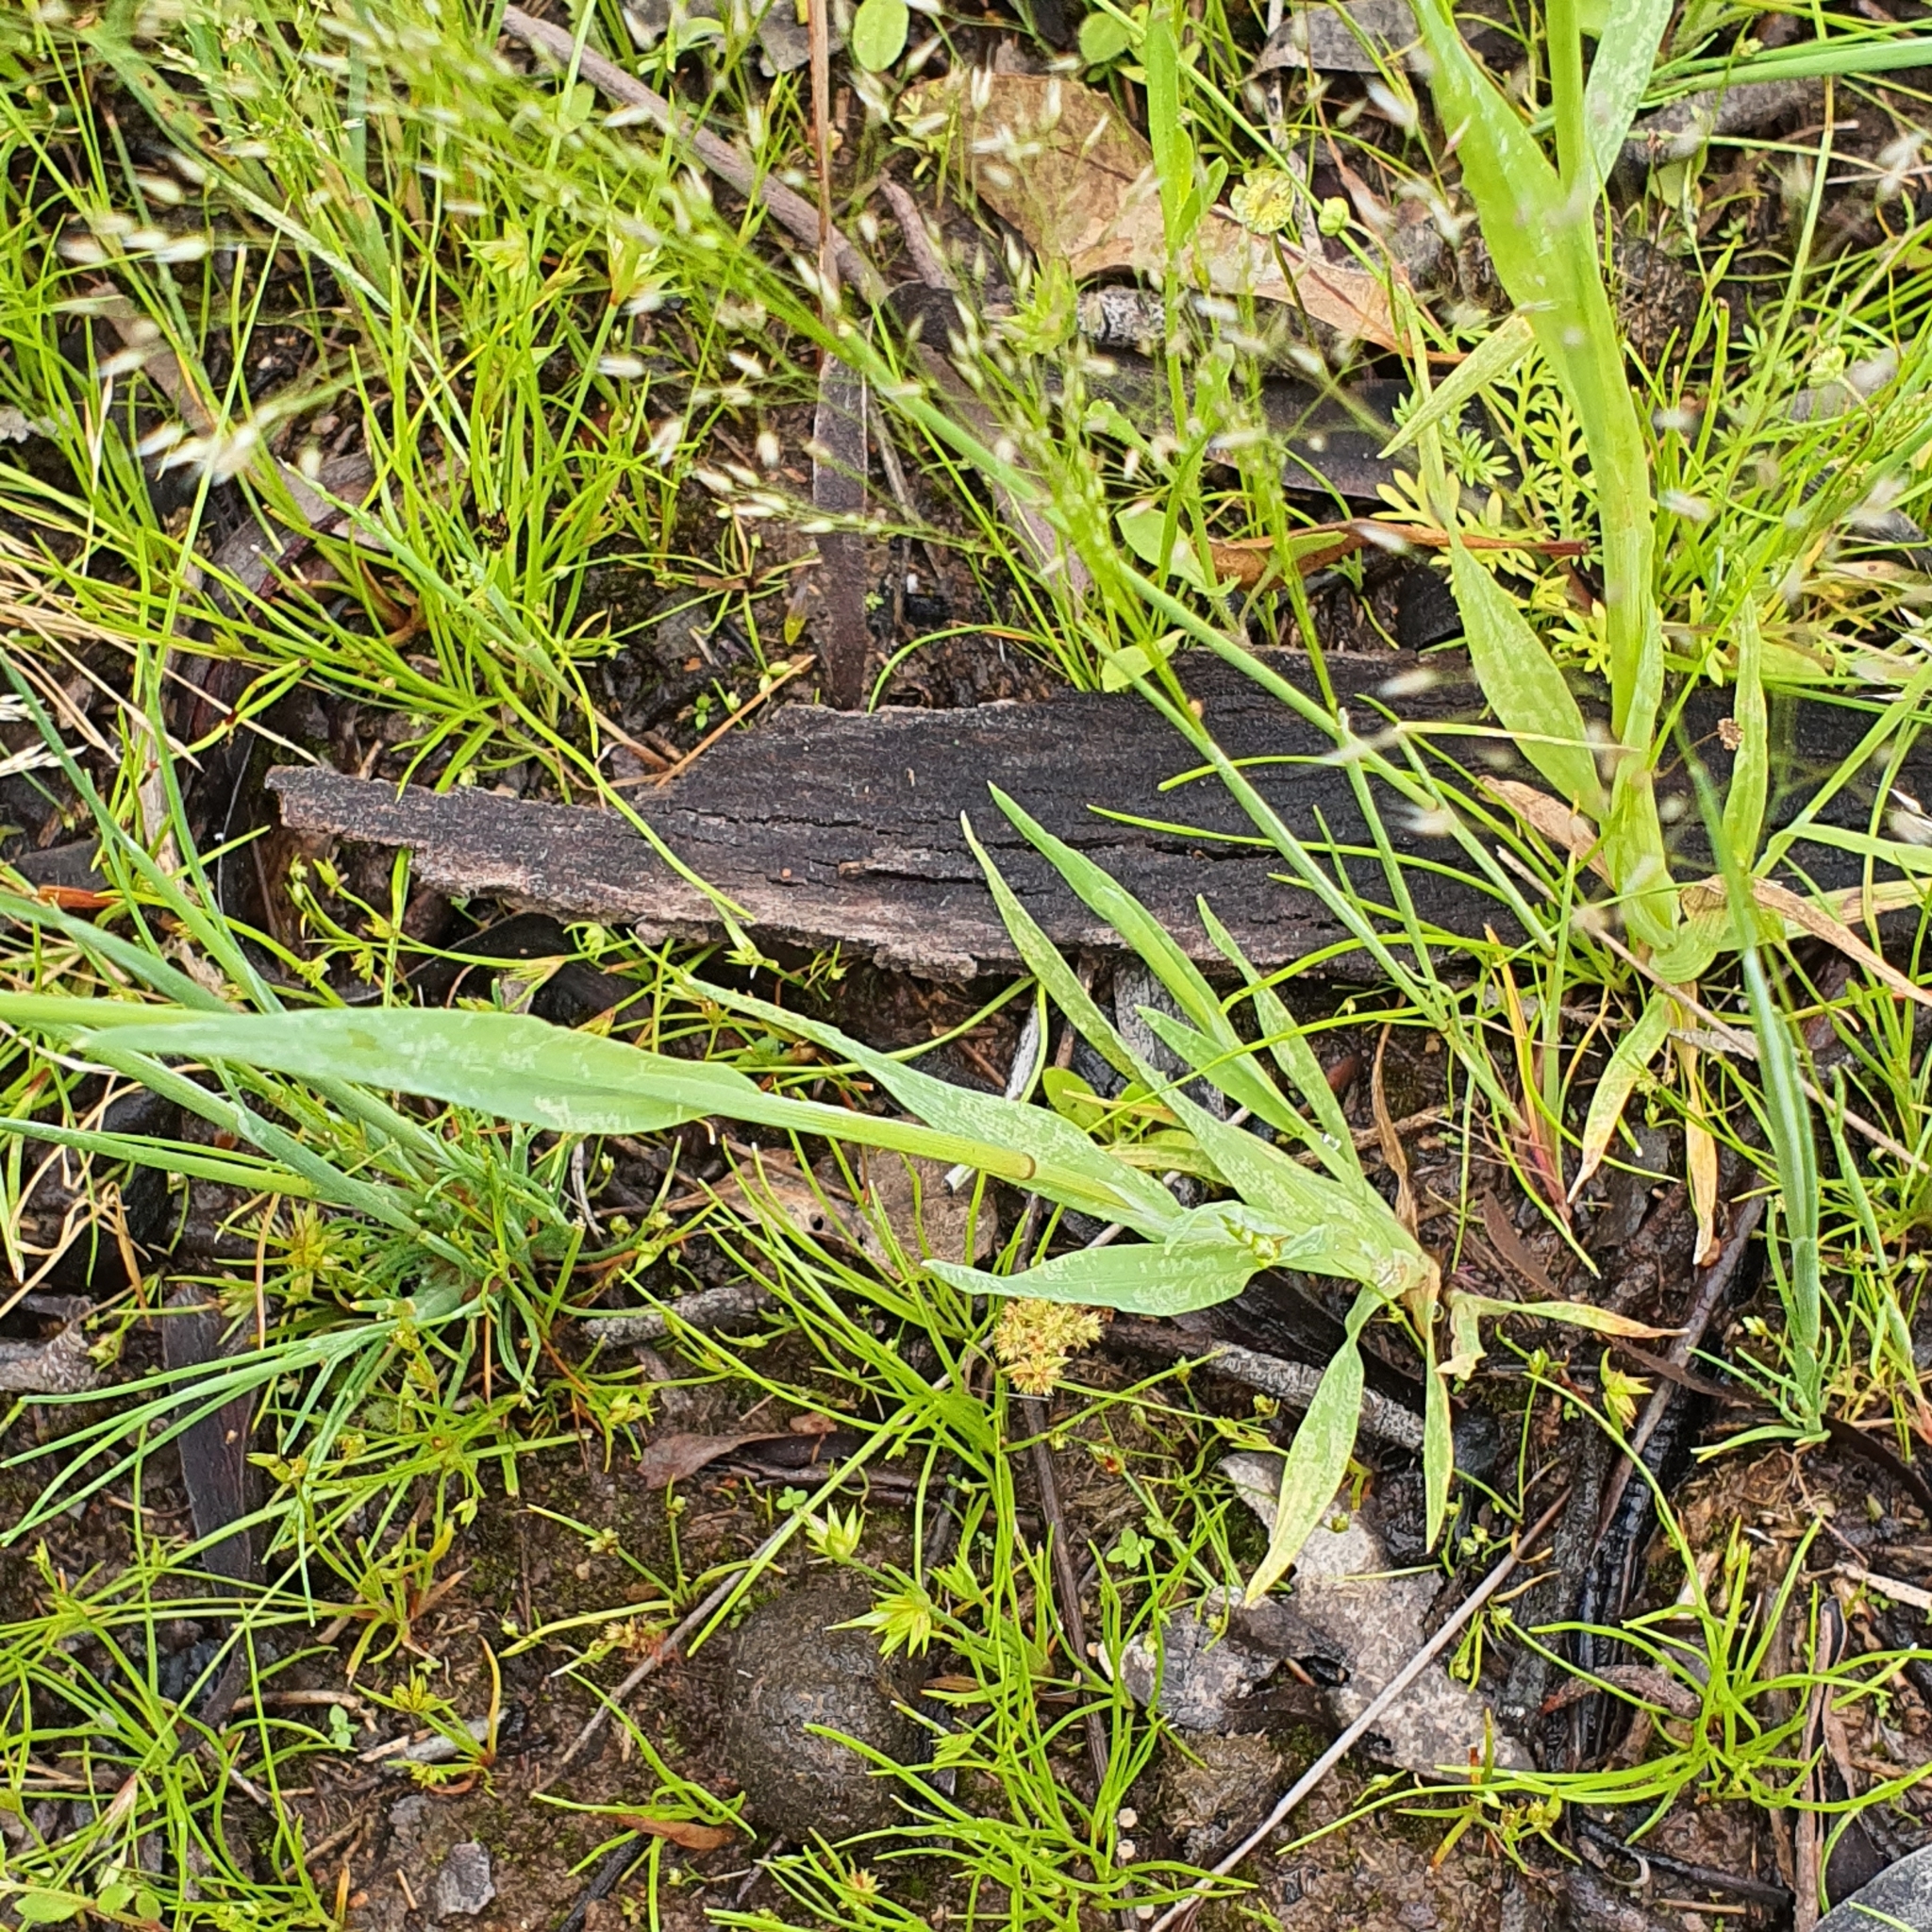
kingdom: Plantae
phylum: Tracheophyta
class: Liliopsida
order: Poales
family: Poaceae
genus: Briza
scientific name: Briza minor
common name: Lesser quaking-grass
